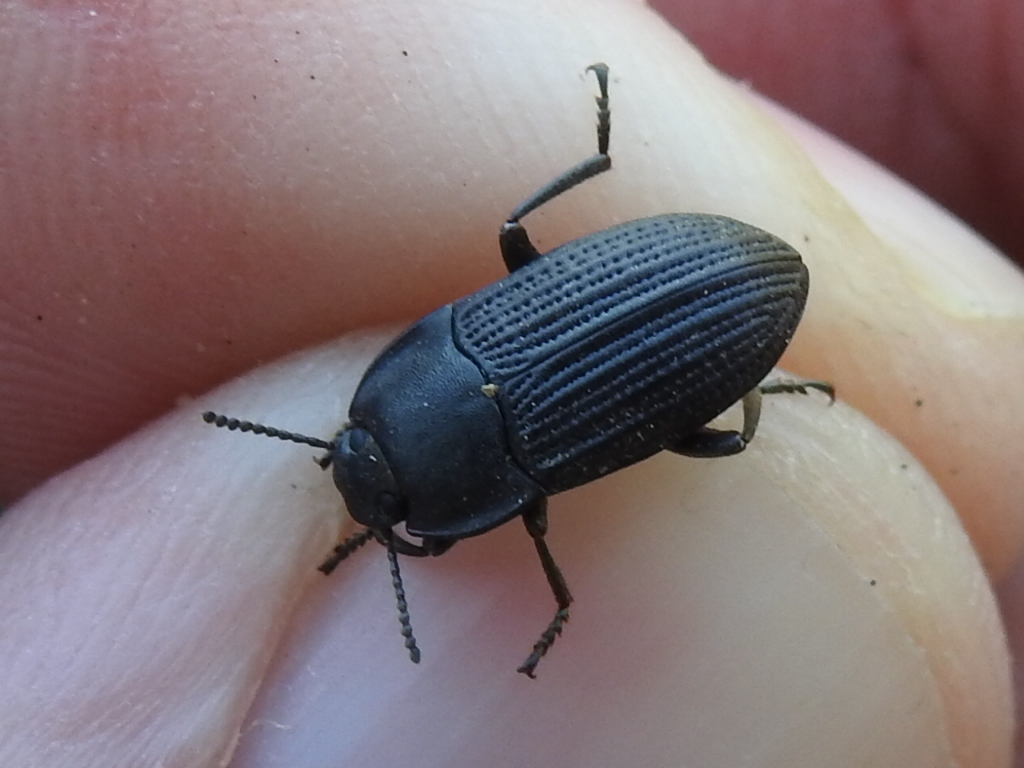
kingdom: Animalia
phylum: Arthropoda
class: Insecta
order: Coleoptera
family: Tenebrionidae
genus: Asiopus
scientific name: Asiopus
